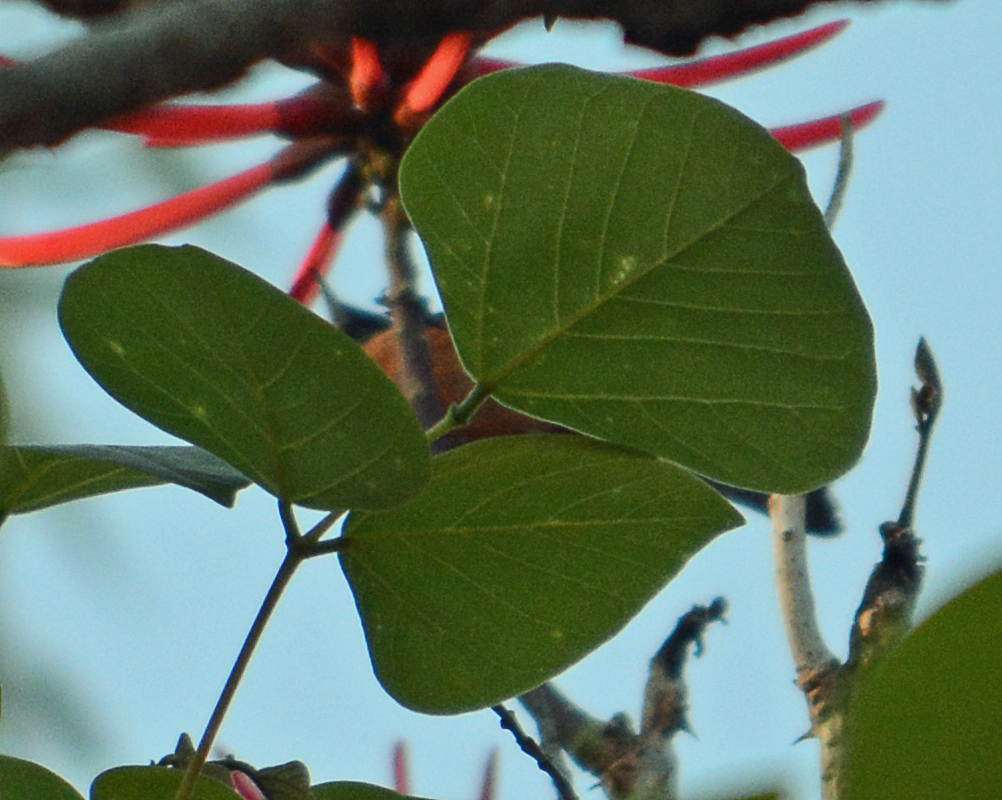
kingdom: Animalia
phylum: Chordata
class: Aves
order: Passeriformes
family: Thraupidae
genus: Diglossa
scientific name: Diglossa baritula
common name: Cinnamon-bellied flowerpiercer
